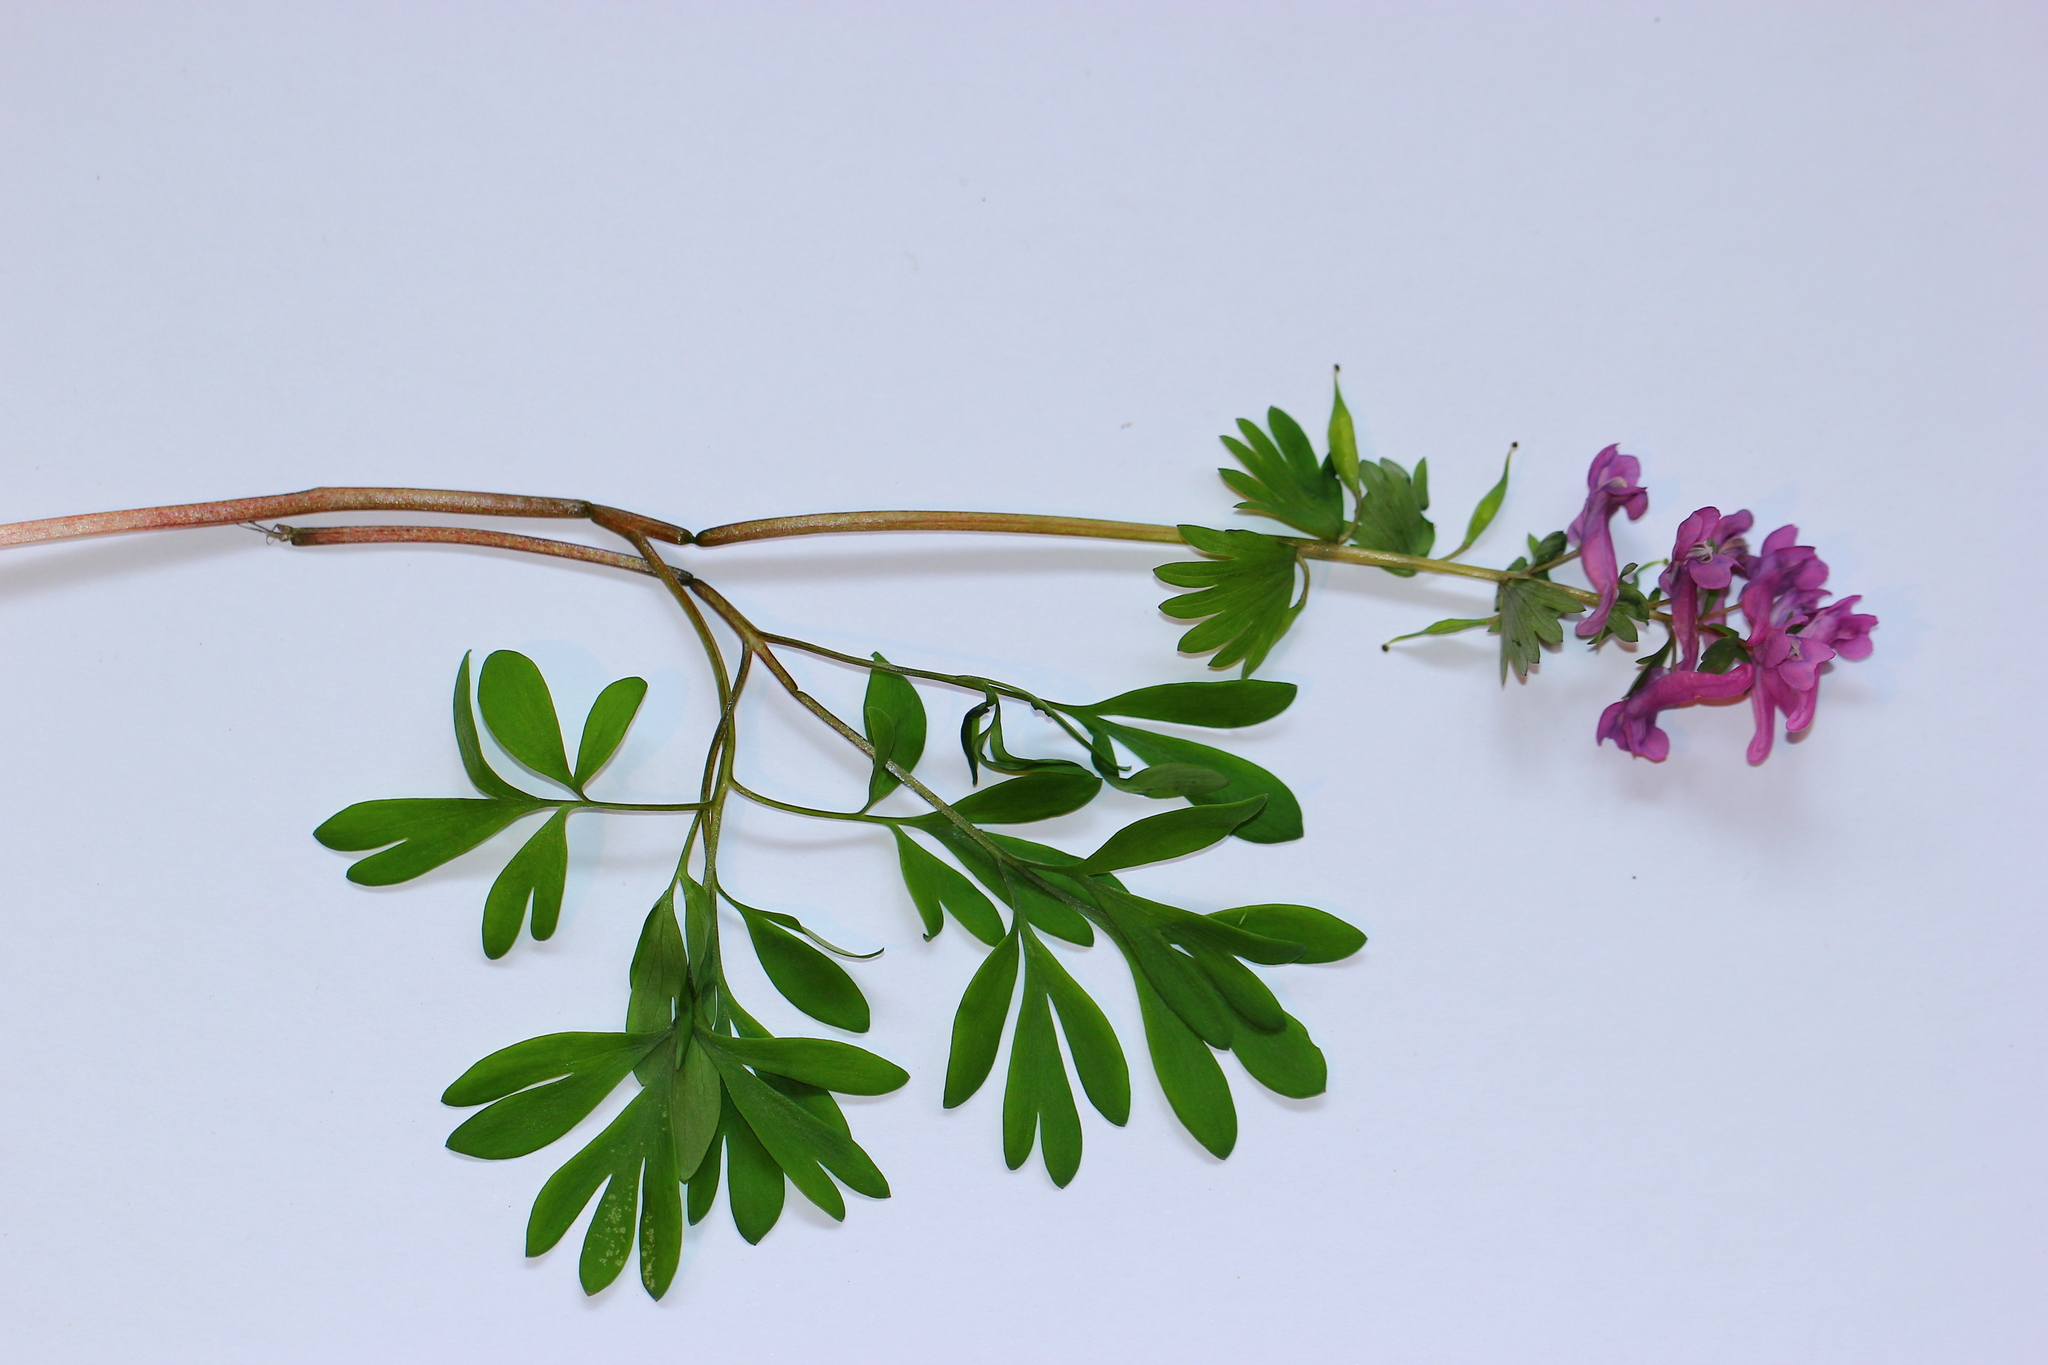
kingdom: Plantae
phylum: Tracheophyta
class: Magnoliopsida
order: Ranunculales
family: Papaveraceae
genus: Corydalis
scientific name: Corydalis solida
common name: Bird-in-a-bush
